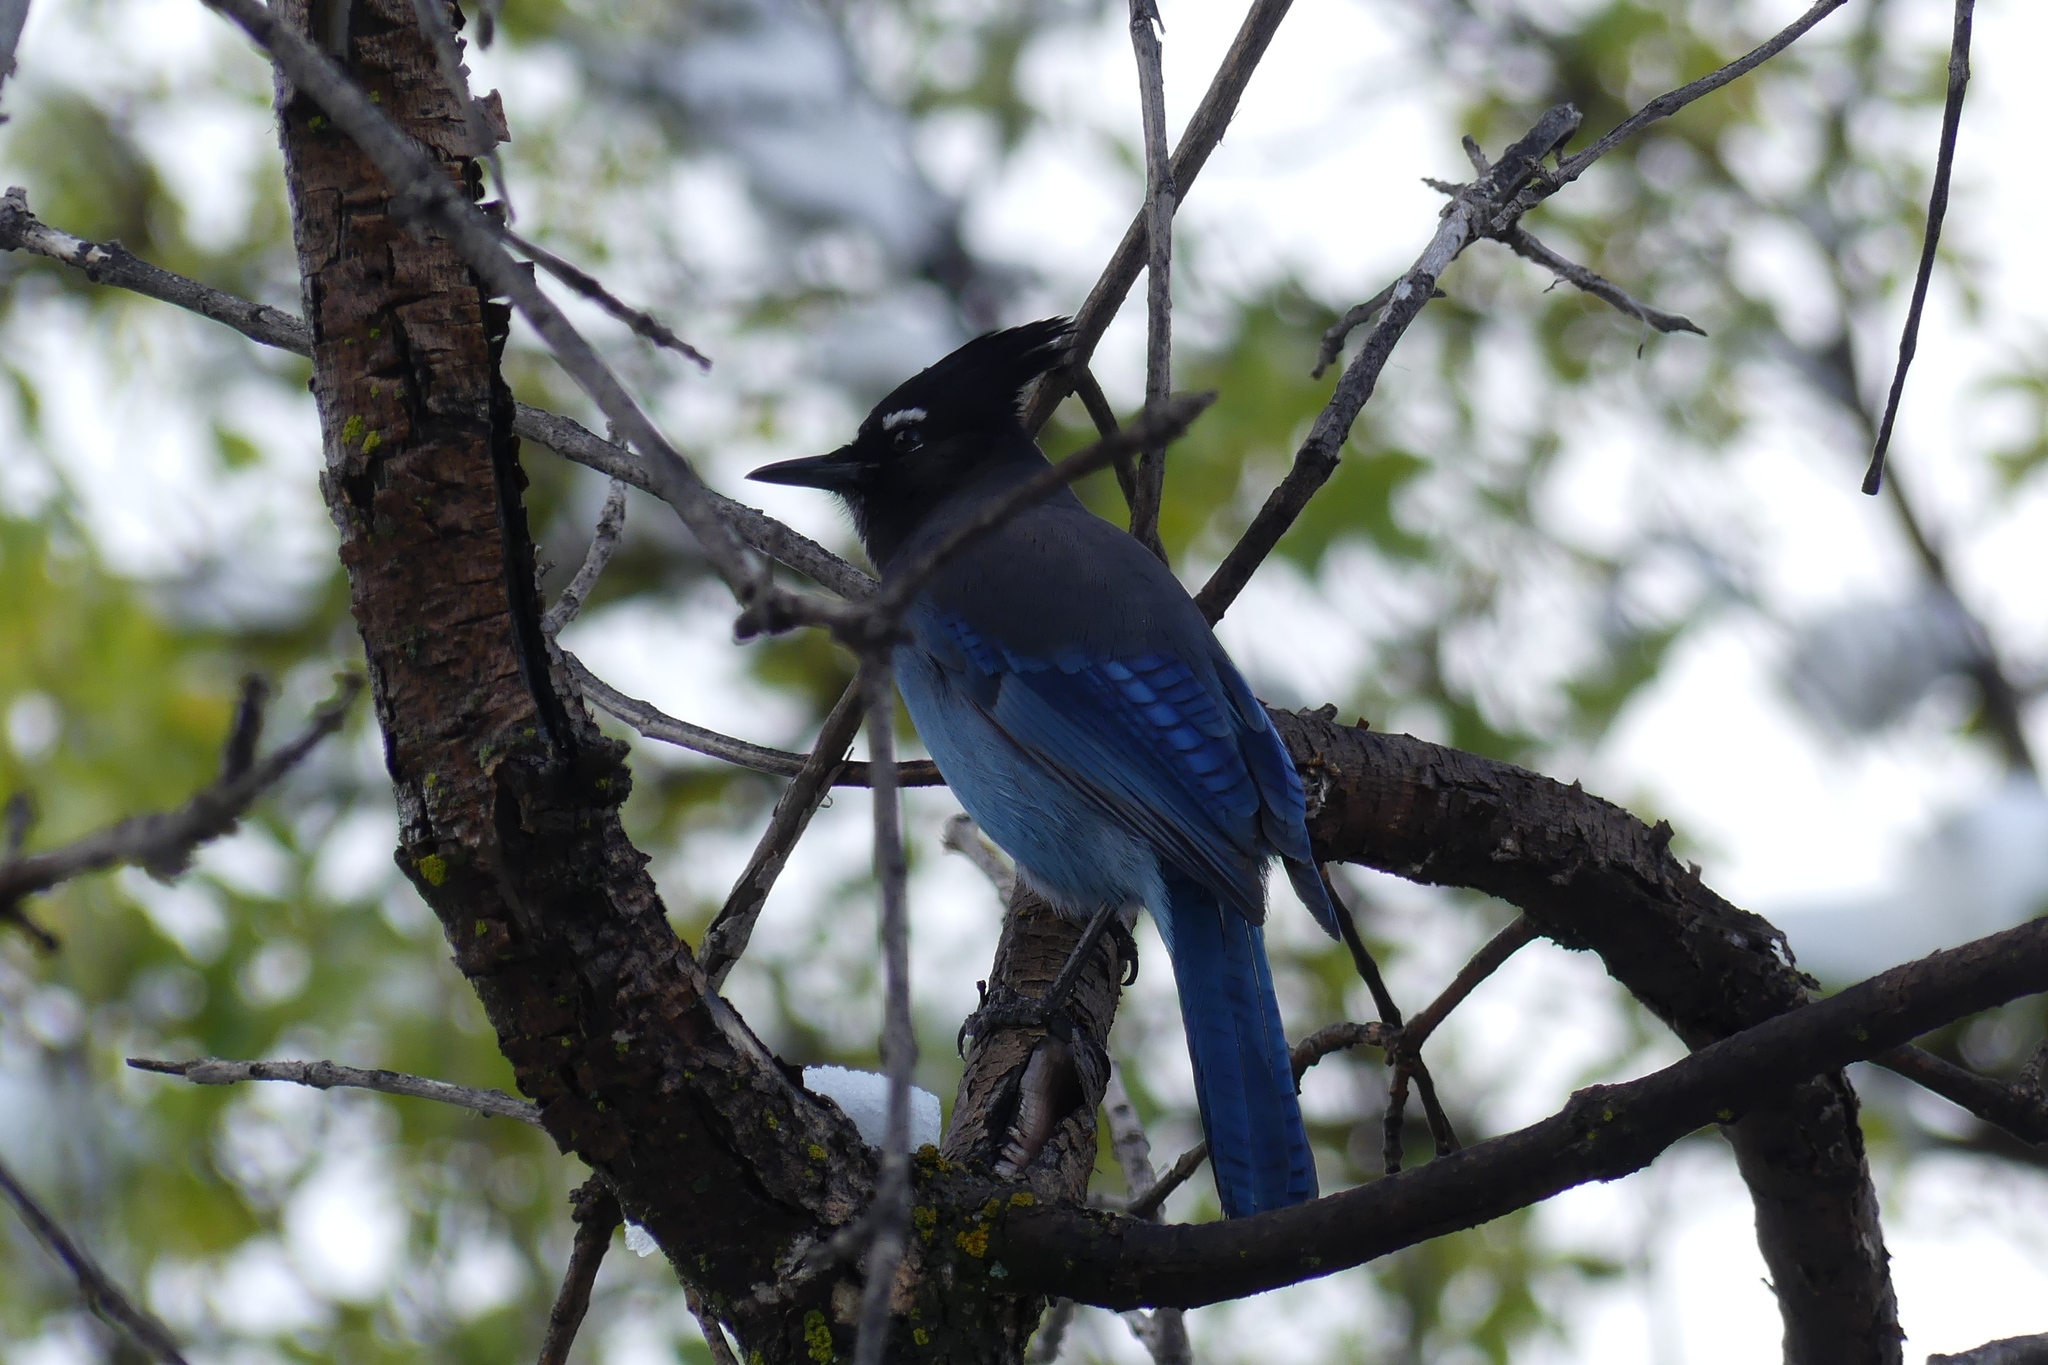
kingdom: Animalia
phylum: Chordata
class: Aves
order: Passeriformes
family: Corvidae
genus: Cyanocitta
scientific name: Cyanocitta stelleri
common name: Steller's jay
